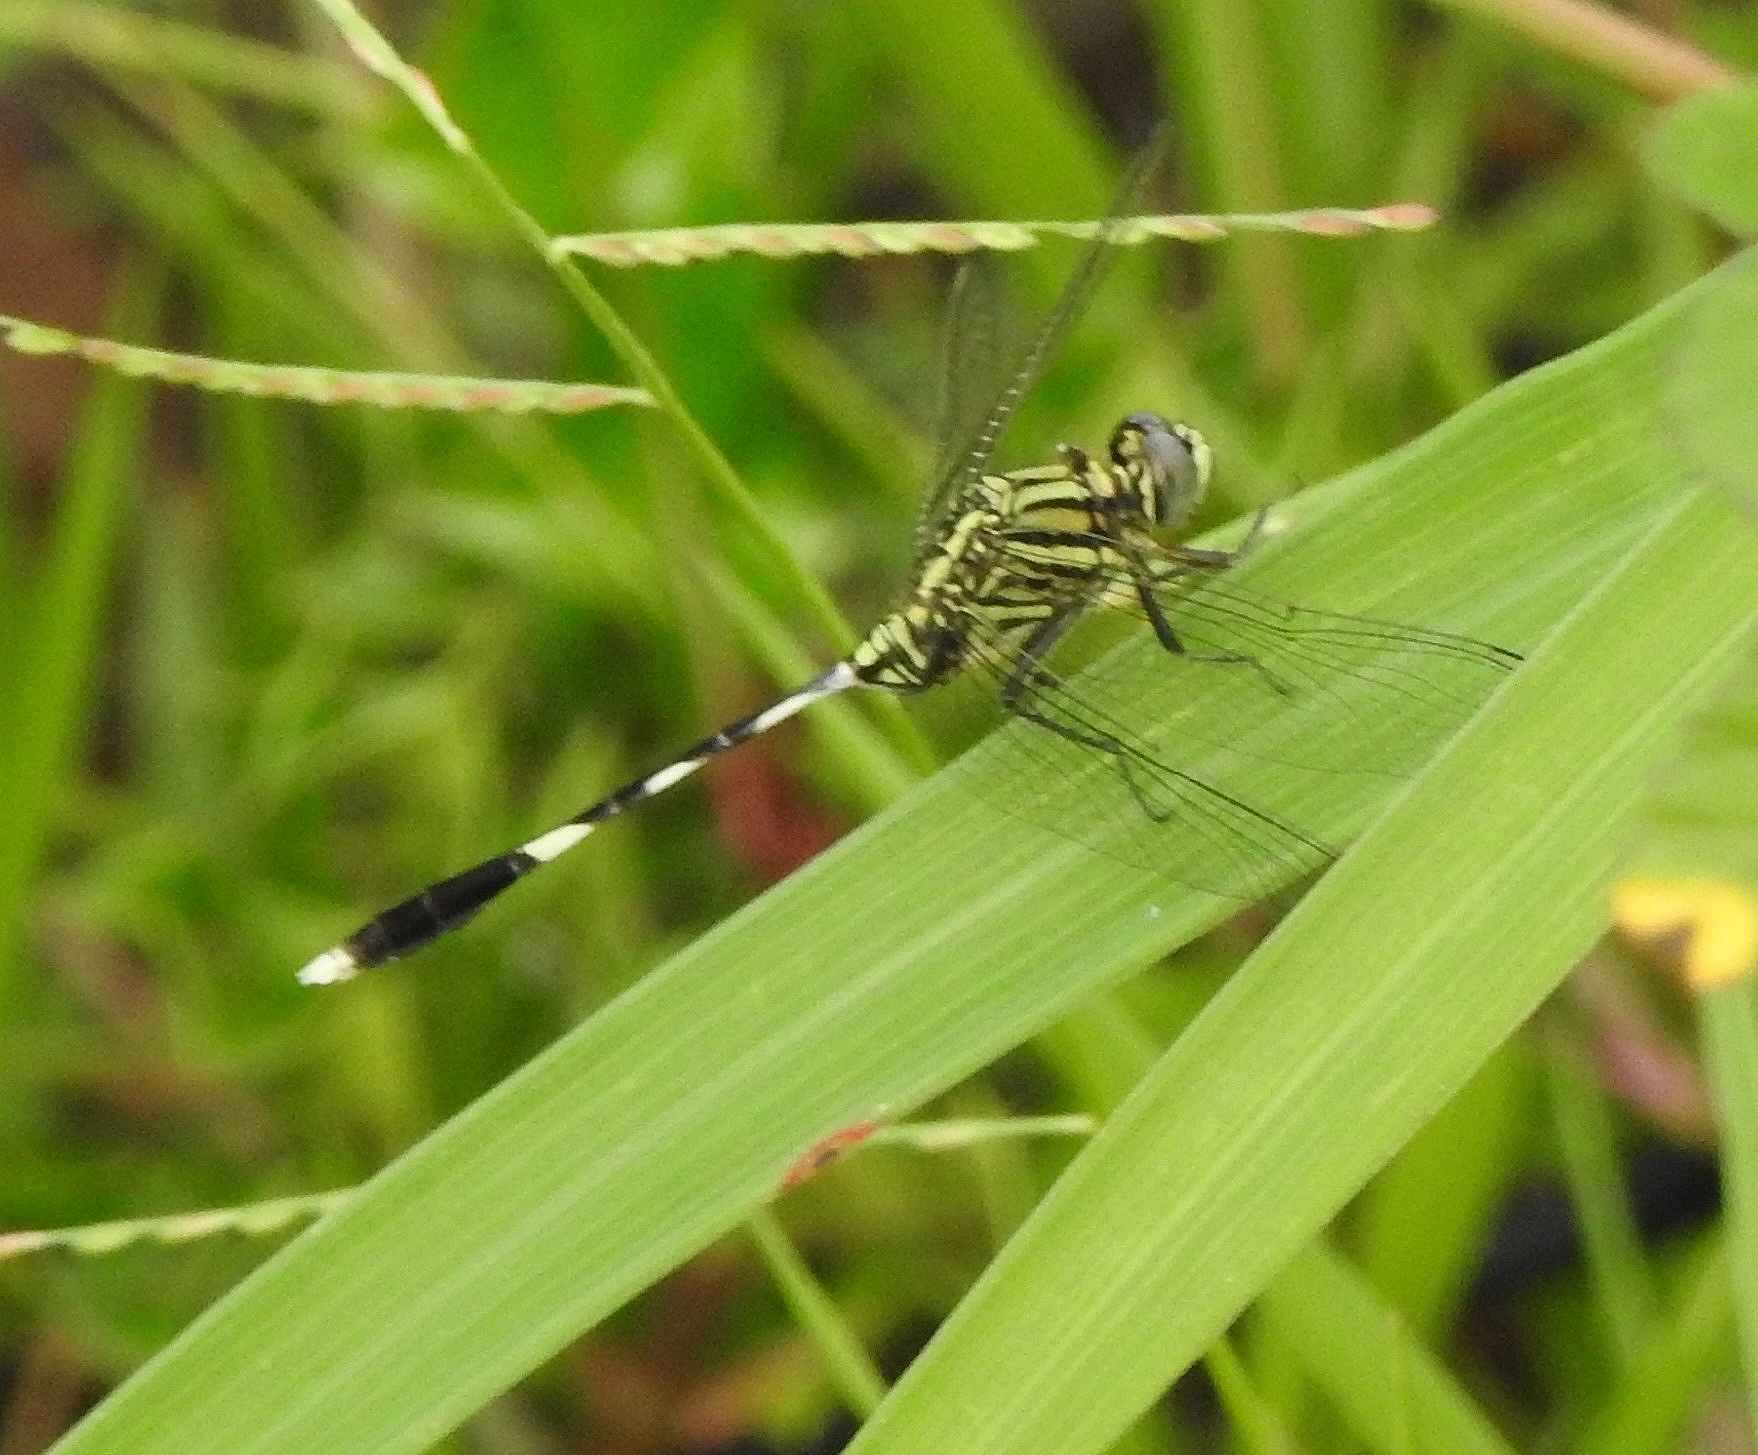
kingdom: Animalia
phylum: Arthropoda
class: Insecta
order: Odonata
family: Libellulidae
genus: Orthetrum
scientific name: Orthetrum sabina
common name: Slender skimmer
